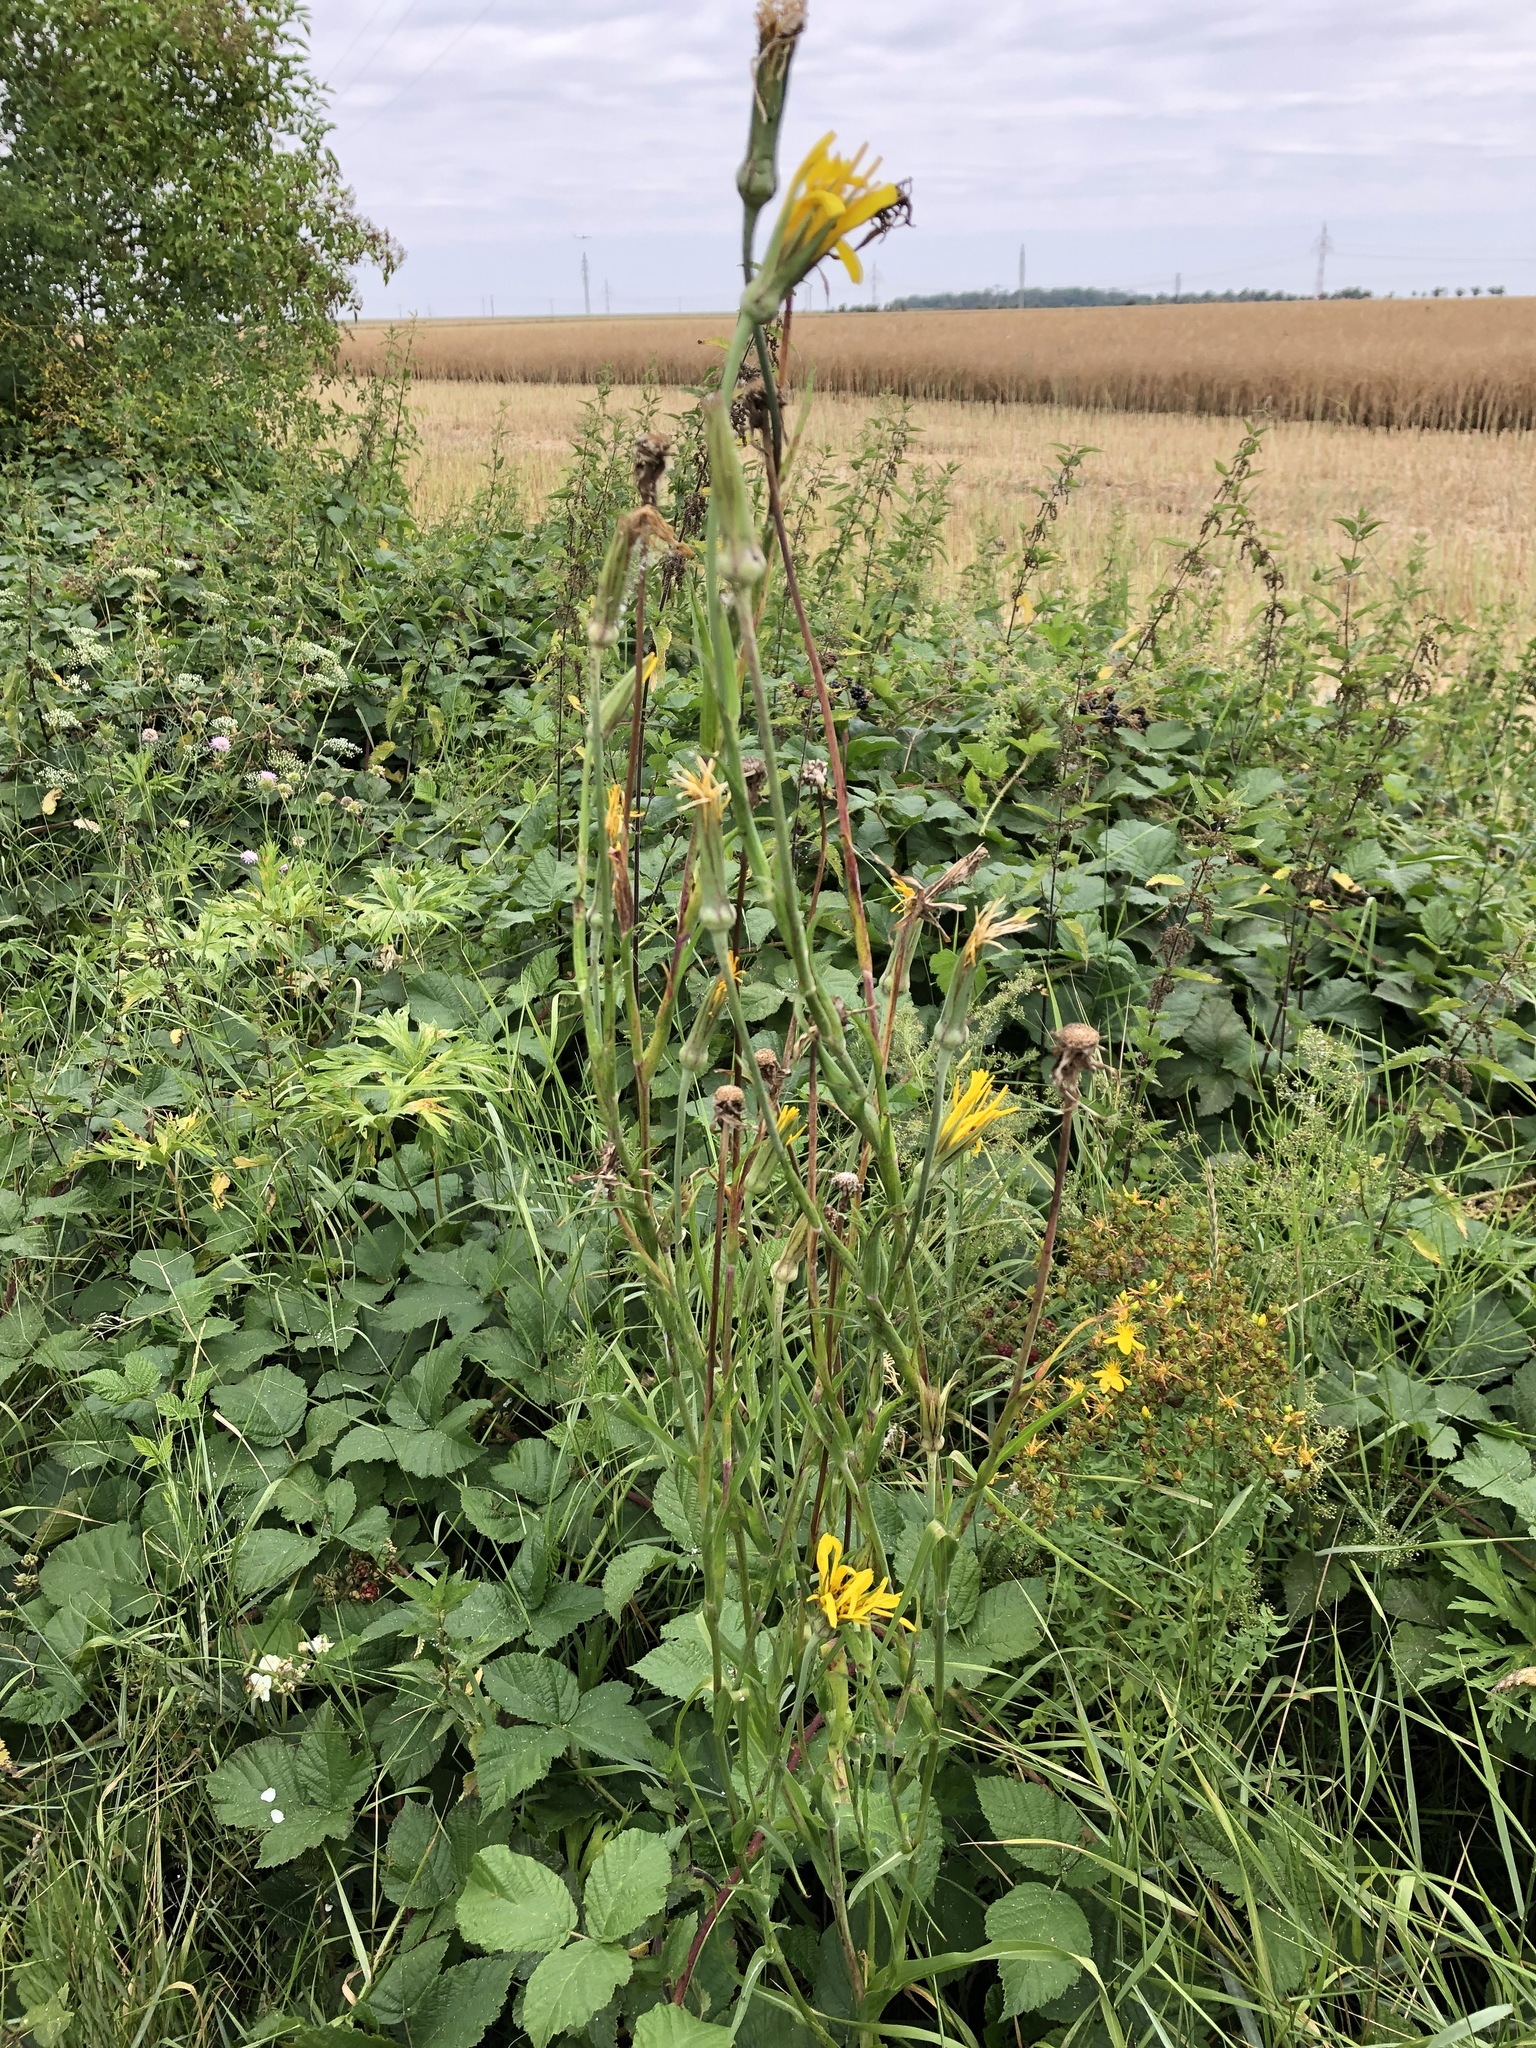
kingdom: Plantae
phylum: Tracheophyta
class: Magnoliopsida
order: Asterales
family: Asteraceae
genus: Tragopogon
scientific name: Tragopogon orientalis
